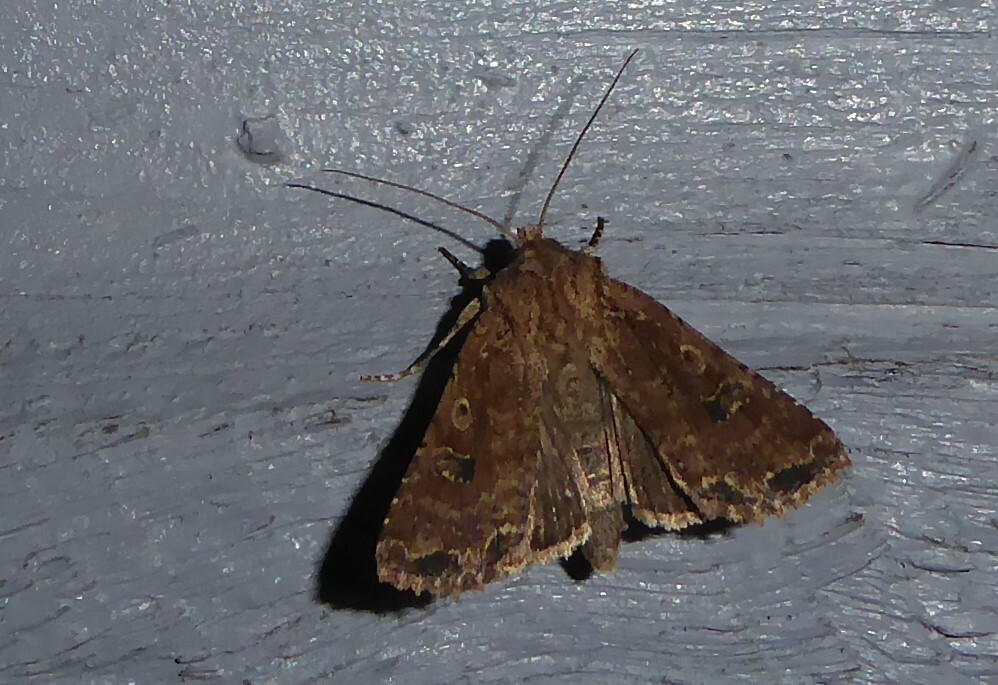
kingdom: Animalia
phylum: Arthropoda
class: Insecta
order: Lepidoptera
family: Noctuidae
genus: Ichneutica
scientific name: Ichneutica morosa
